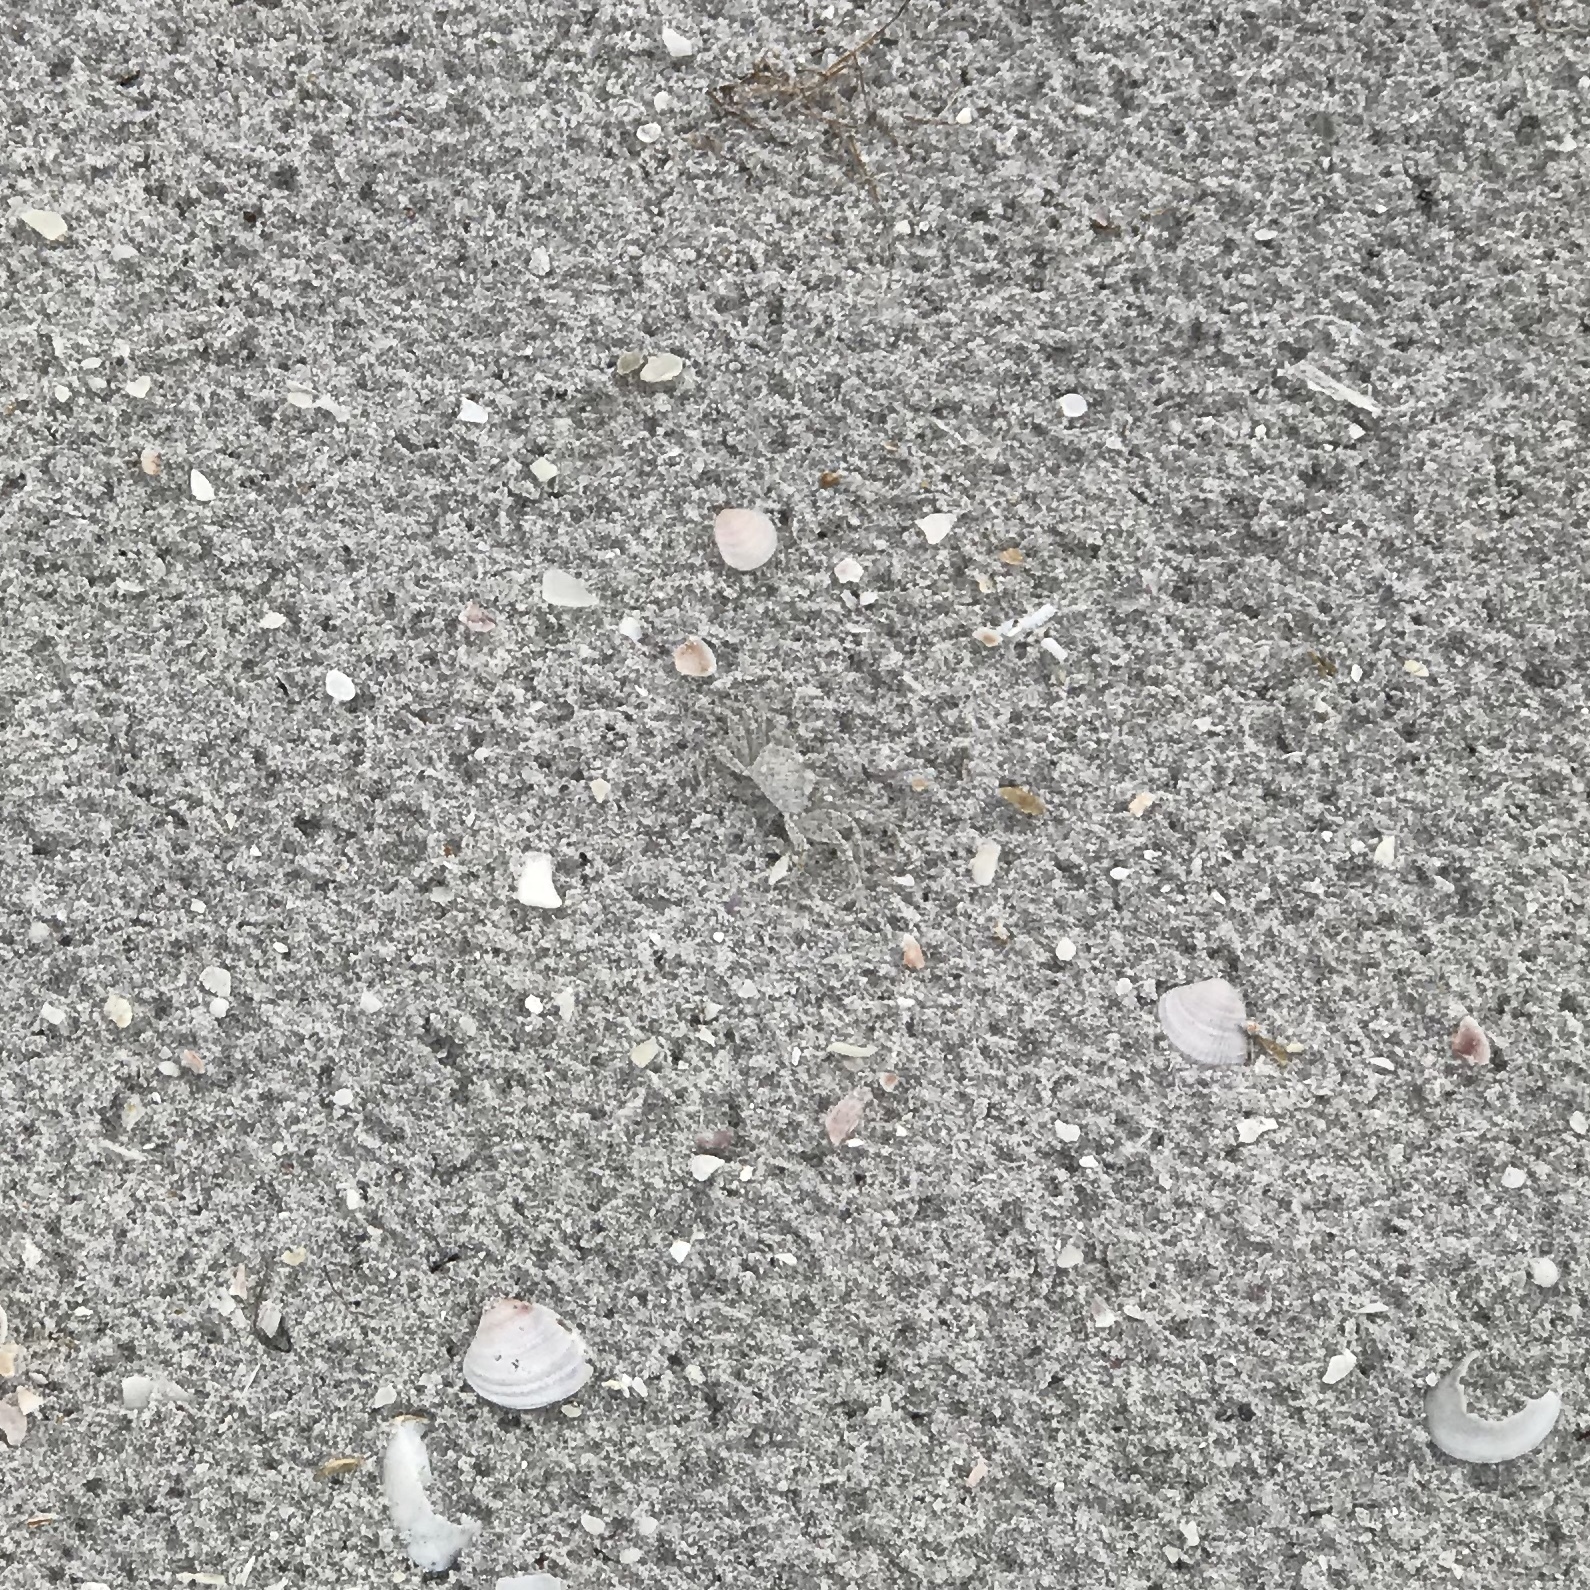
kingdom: Animalia
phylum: Arthropoda
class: Malacostraca
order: Decapoda
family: Ocypodidae
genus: Ocypode
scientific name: Ocypode quadrata
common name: Ghost crab
